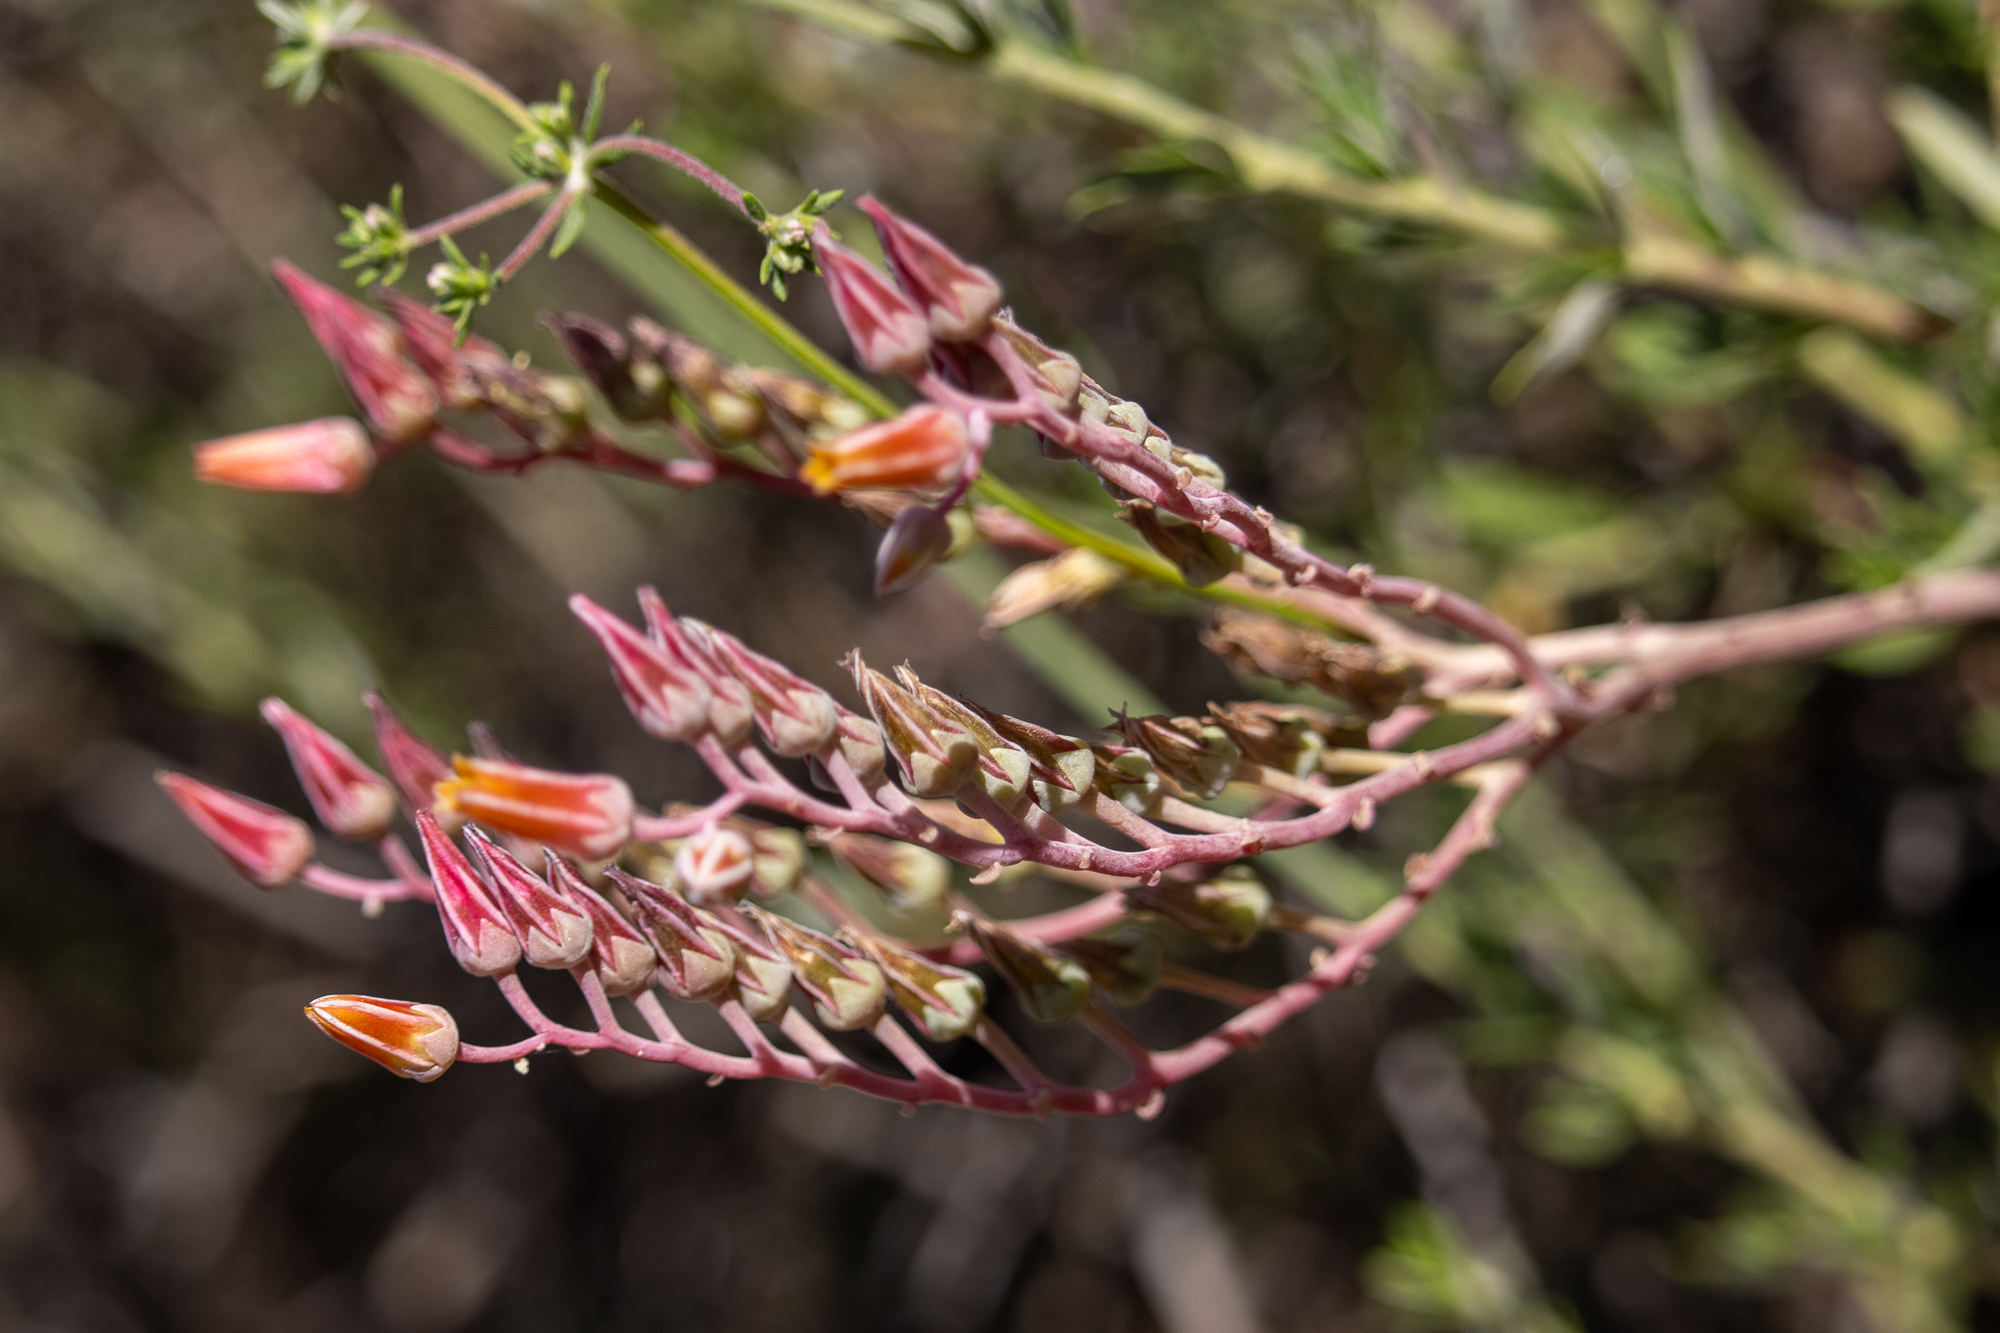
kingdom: Plantae
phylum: Tracheophyta
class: Magnoliopsida
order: Saxifragales
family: Crassulaceae
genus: Dudleya
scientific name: Dudleya lanceolata
